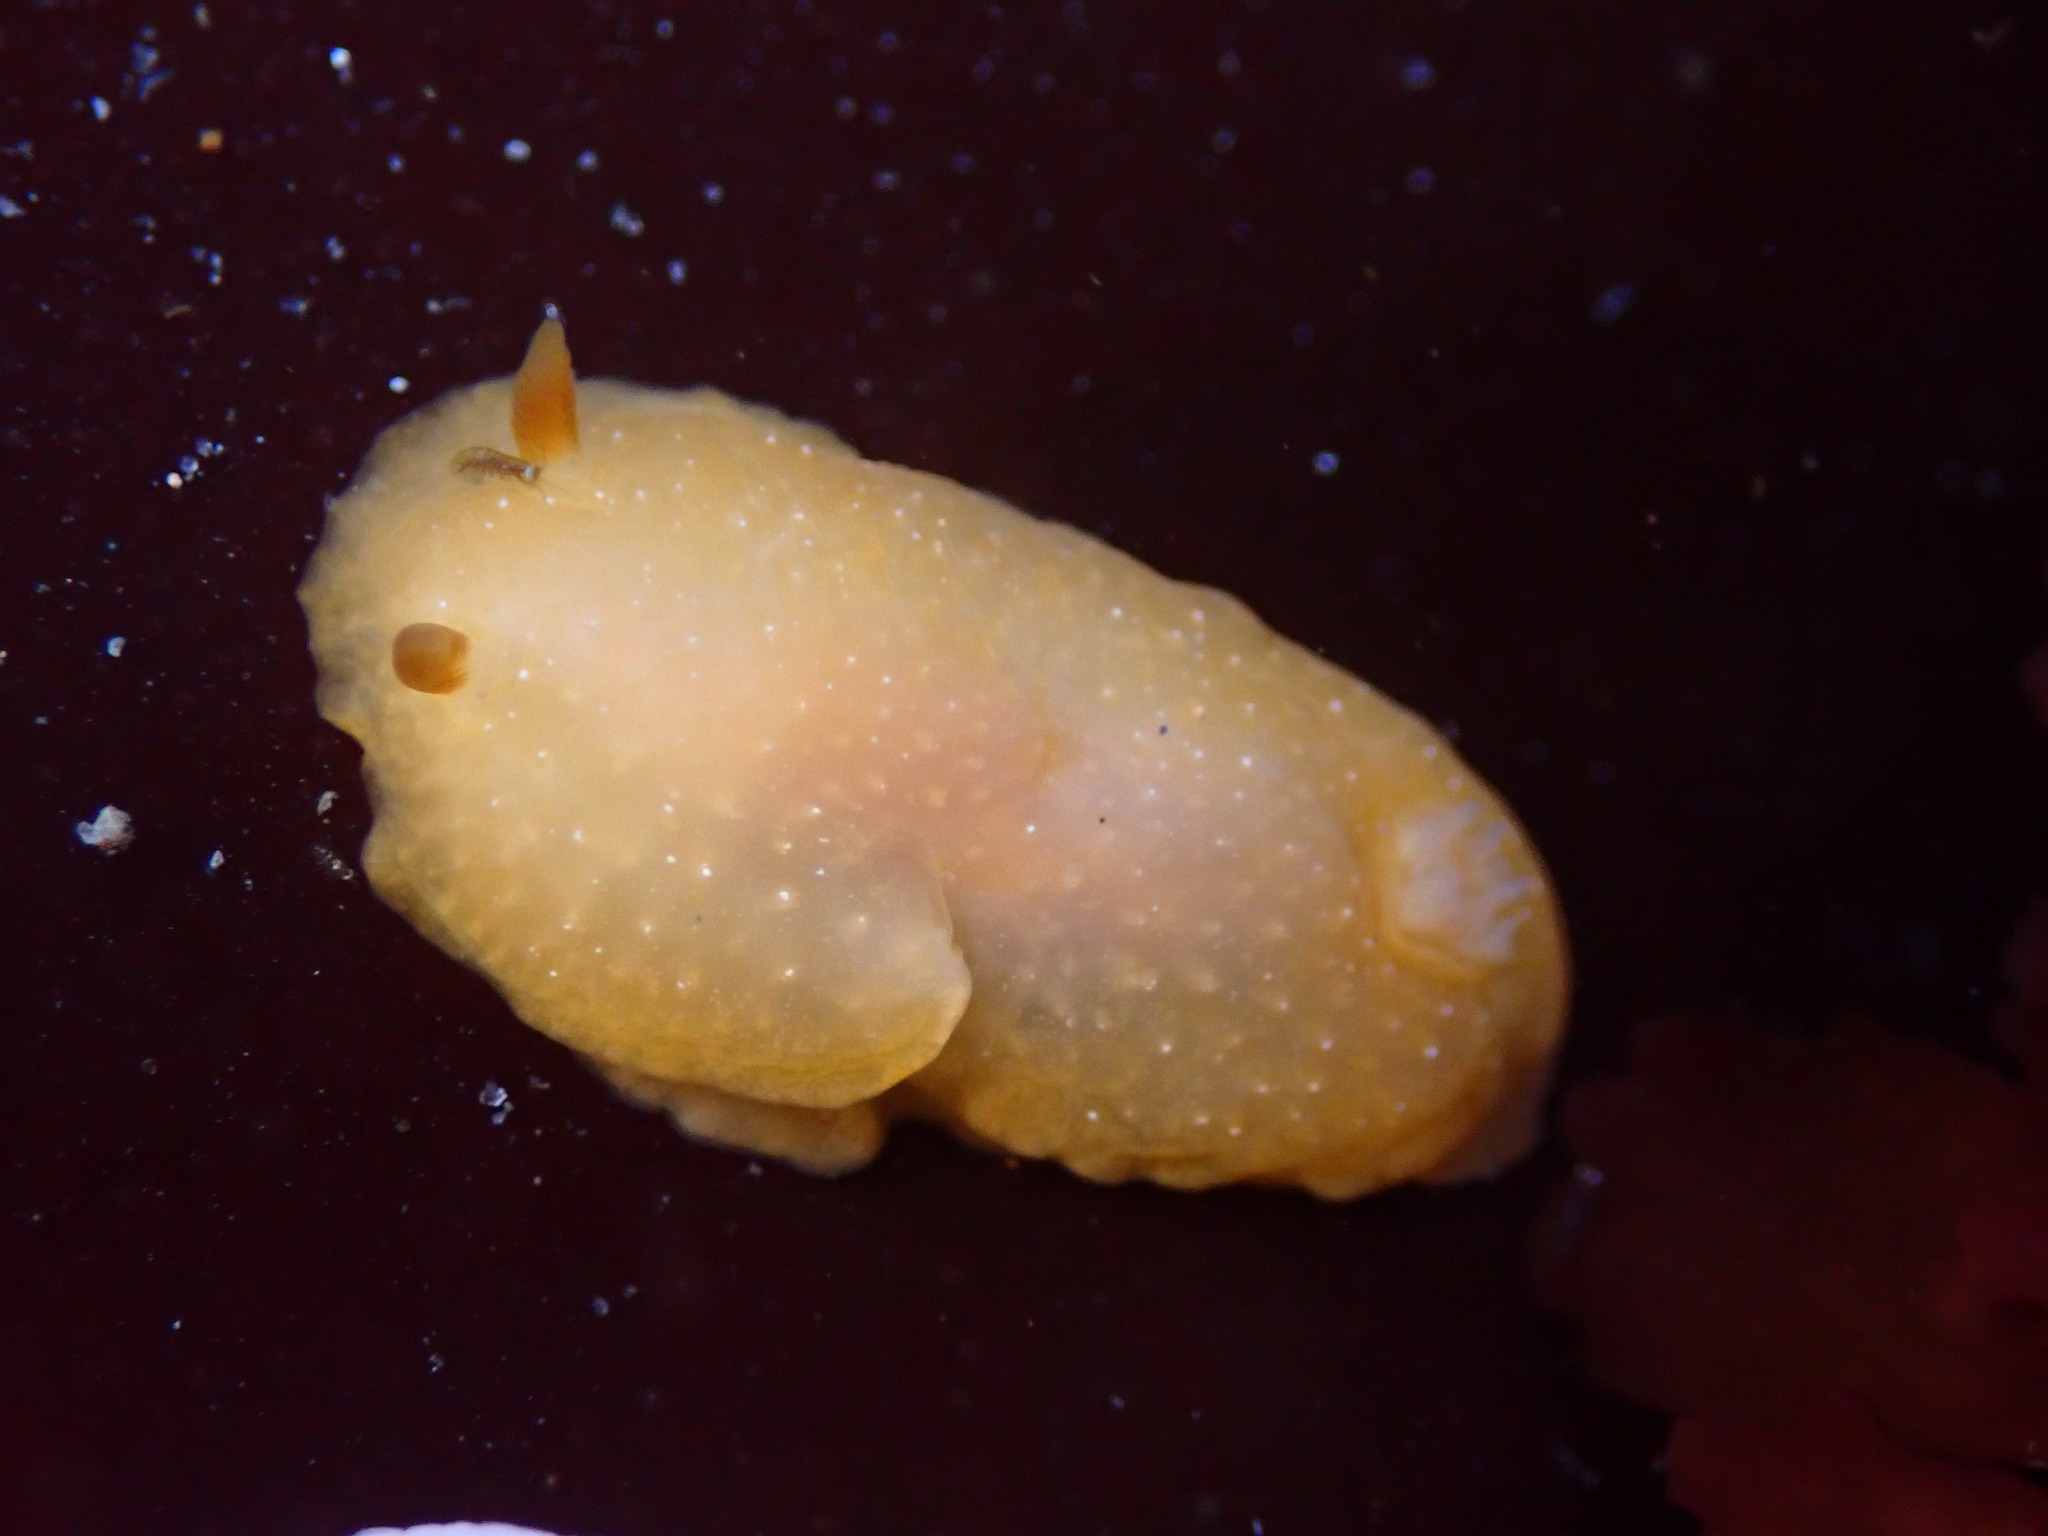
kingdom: Animalia
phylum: Mollusca
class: Gastropoda
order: Nudibranchia
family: Dendrodorididae
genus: Doriopsilla
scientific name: Doriopsilla fulva
